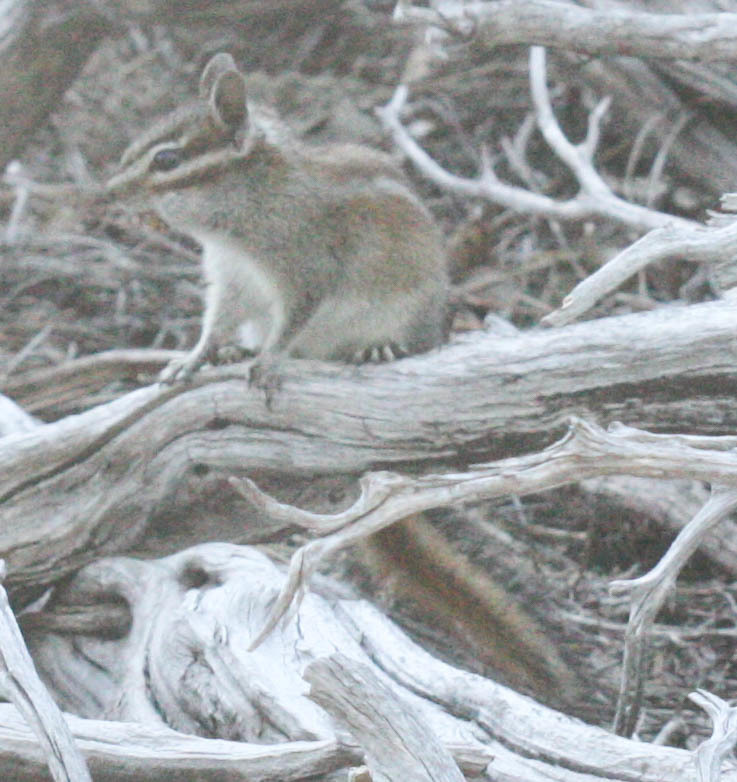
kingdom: Animalia
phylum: Chordata
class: Mammalia
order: Rodentia
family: Sciuridae
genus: Tamias
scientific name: Tamias sonomae
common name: Sonoma chipmunk
